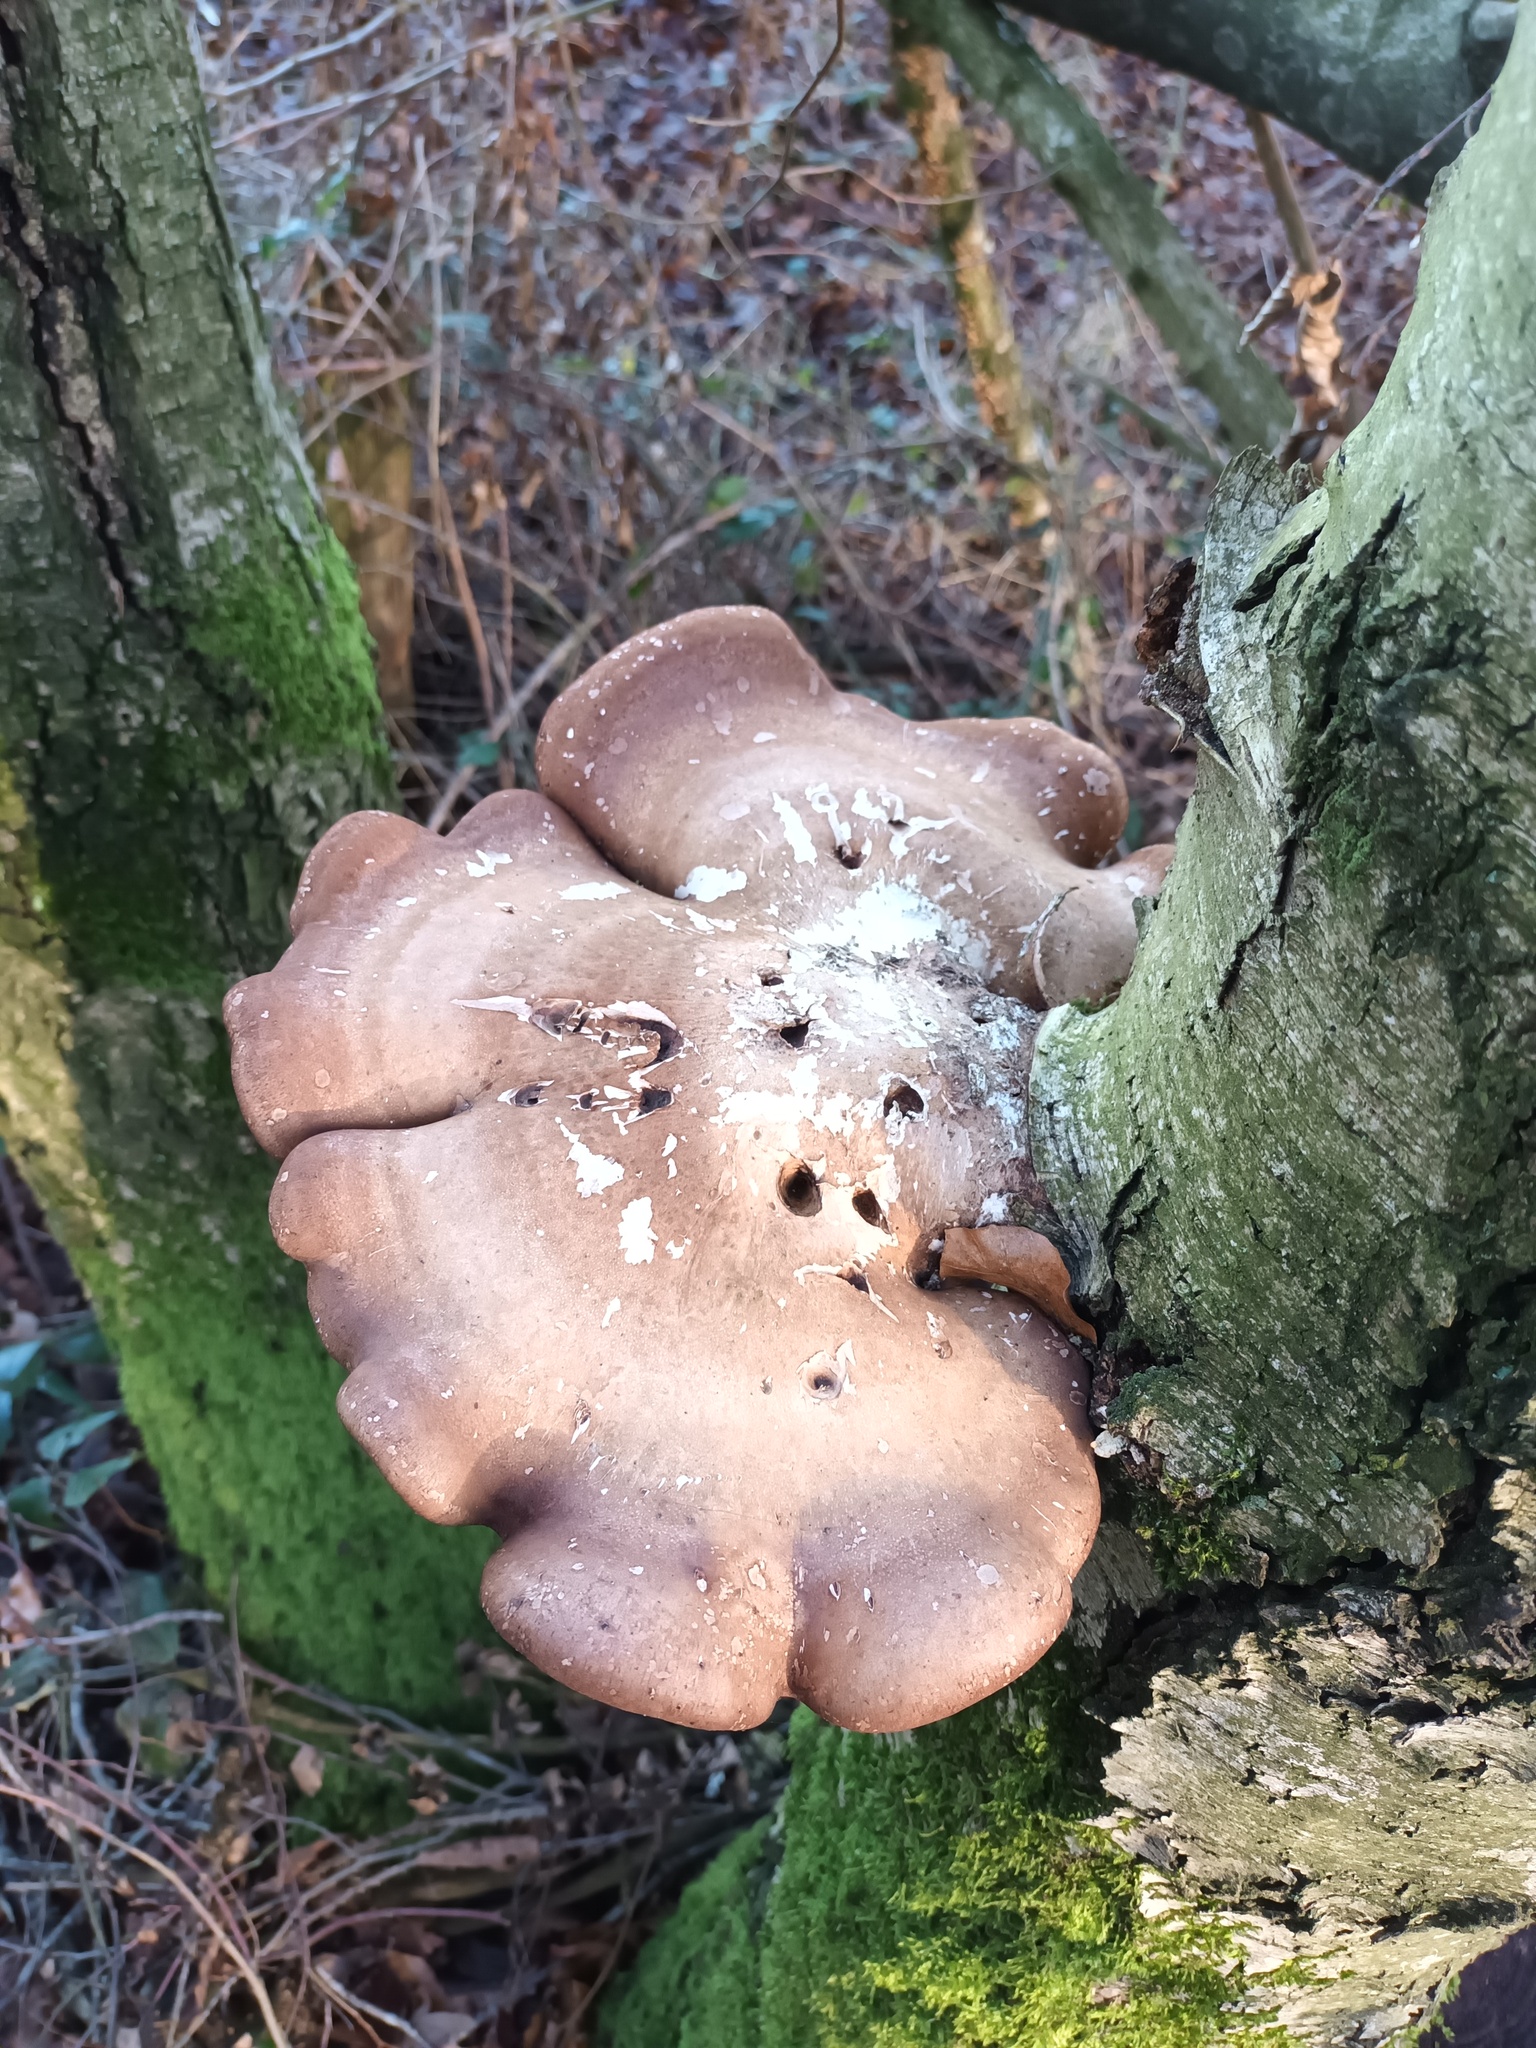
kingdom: Fungi
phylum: Basidiomycota
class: Agaricomycetes
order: Polyporales
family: Fomitopsidaceae
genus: Fomitopsis
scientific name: Fomitopsis betulina
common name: Birch polypore
